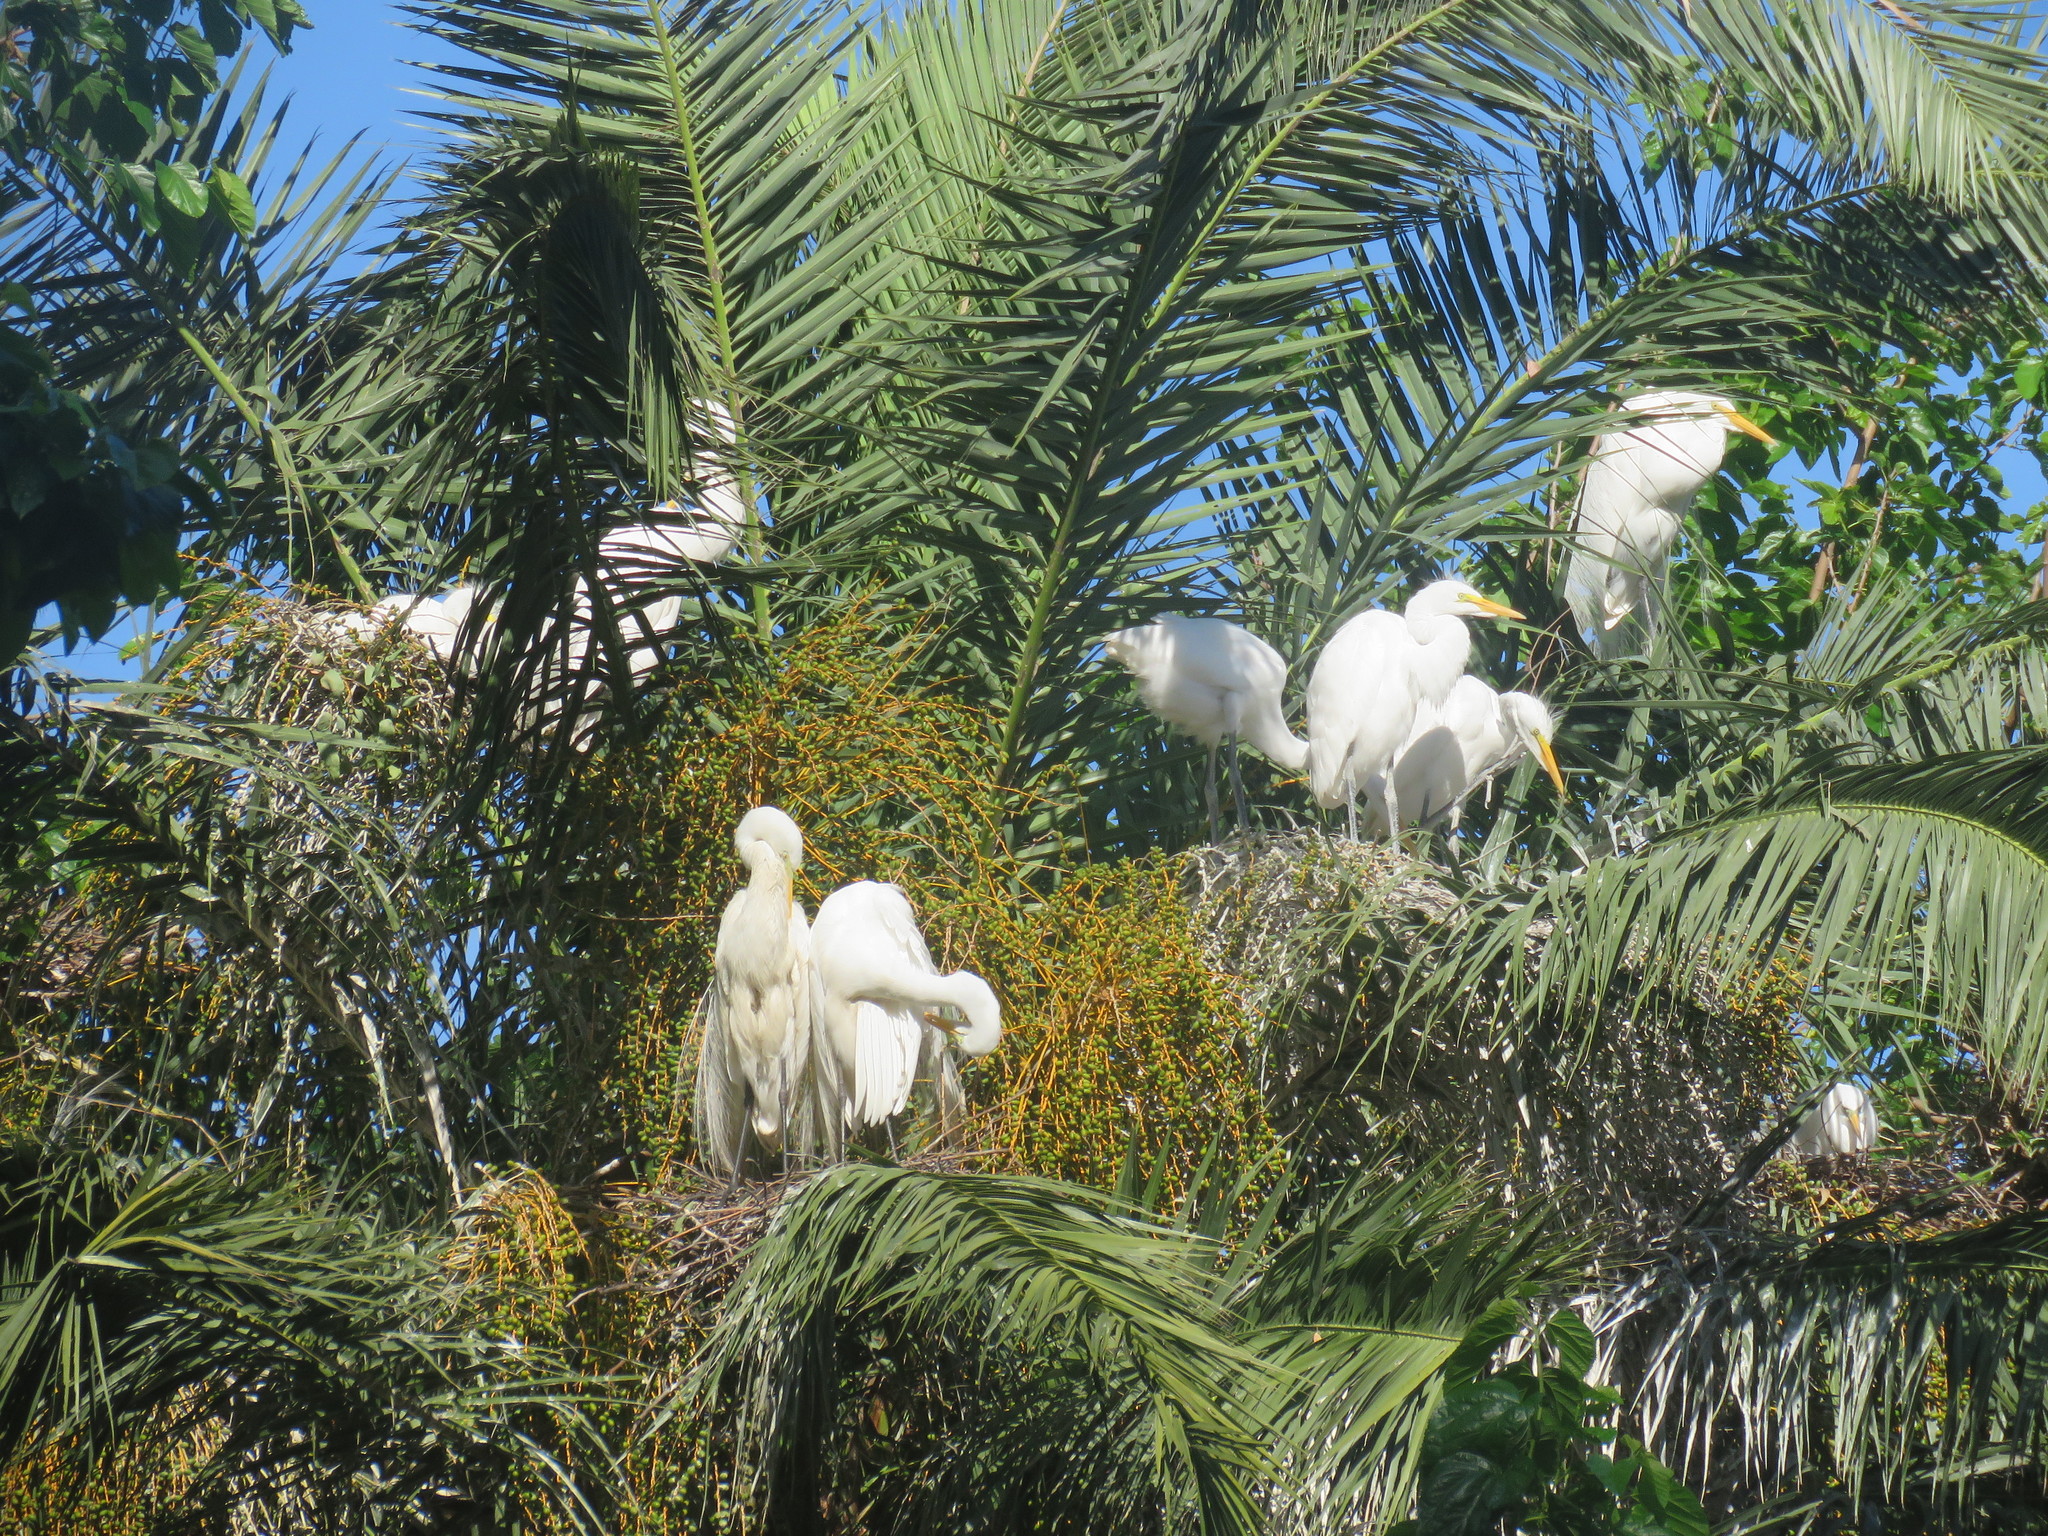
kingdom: Animalia
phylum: Chordata
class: Aves
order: Pelecaniformes
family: Ardeidae
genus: Ardea
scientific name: Ardea alba
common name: Great egret
